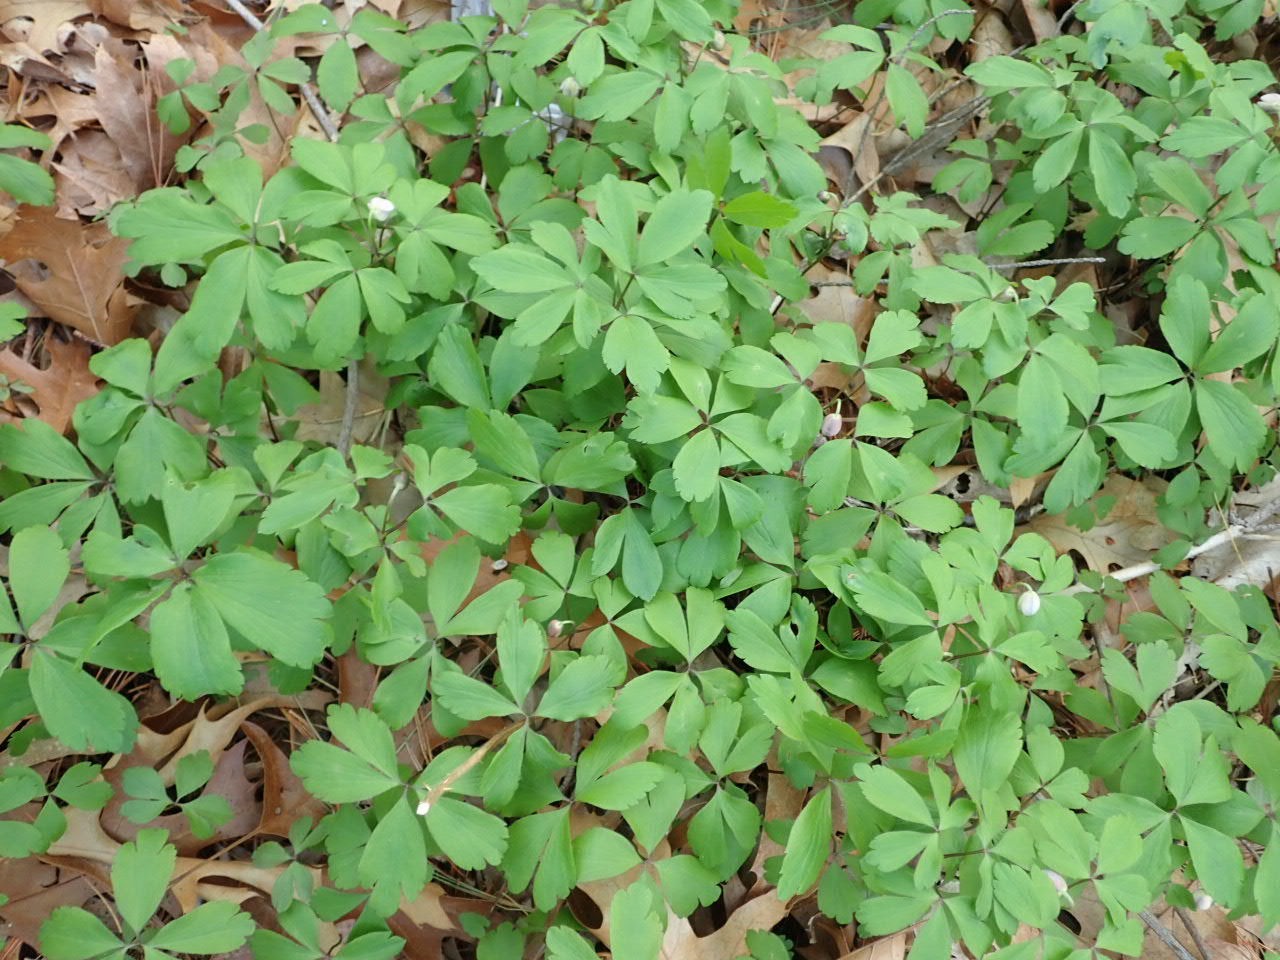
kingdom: Plantae
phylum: Tracheophyta
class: Magnoliopsida
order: Ranunculales
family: Ranunculaceae
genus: Anemone
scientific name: Anemone quinquefolia
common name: Wood anemone
